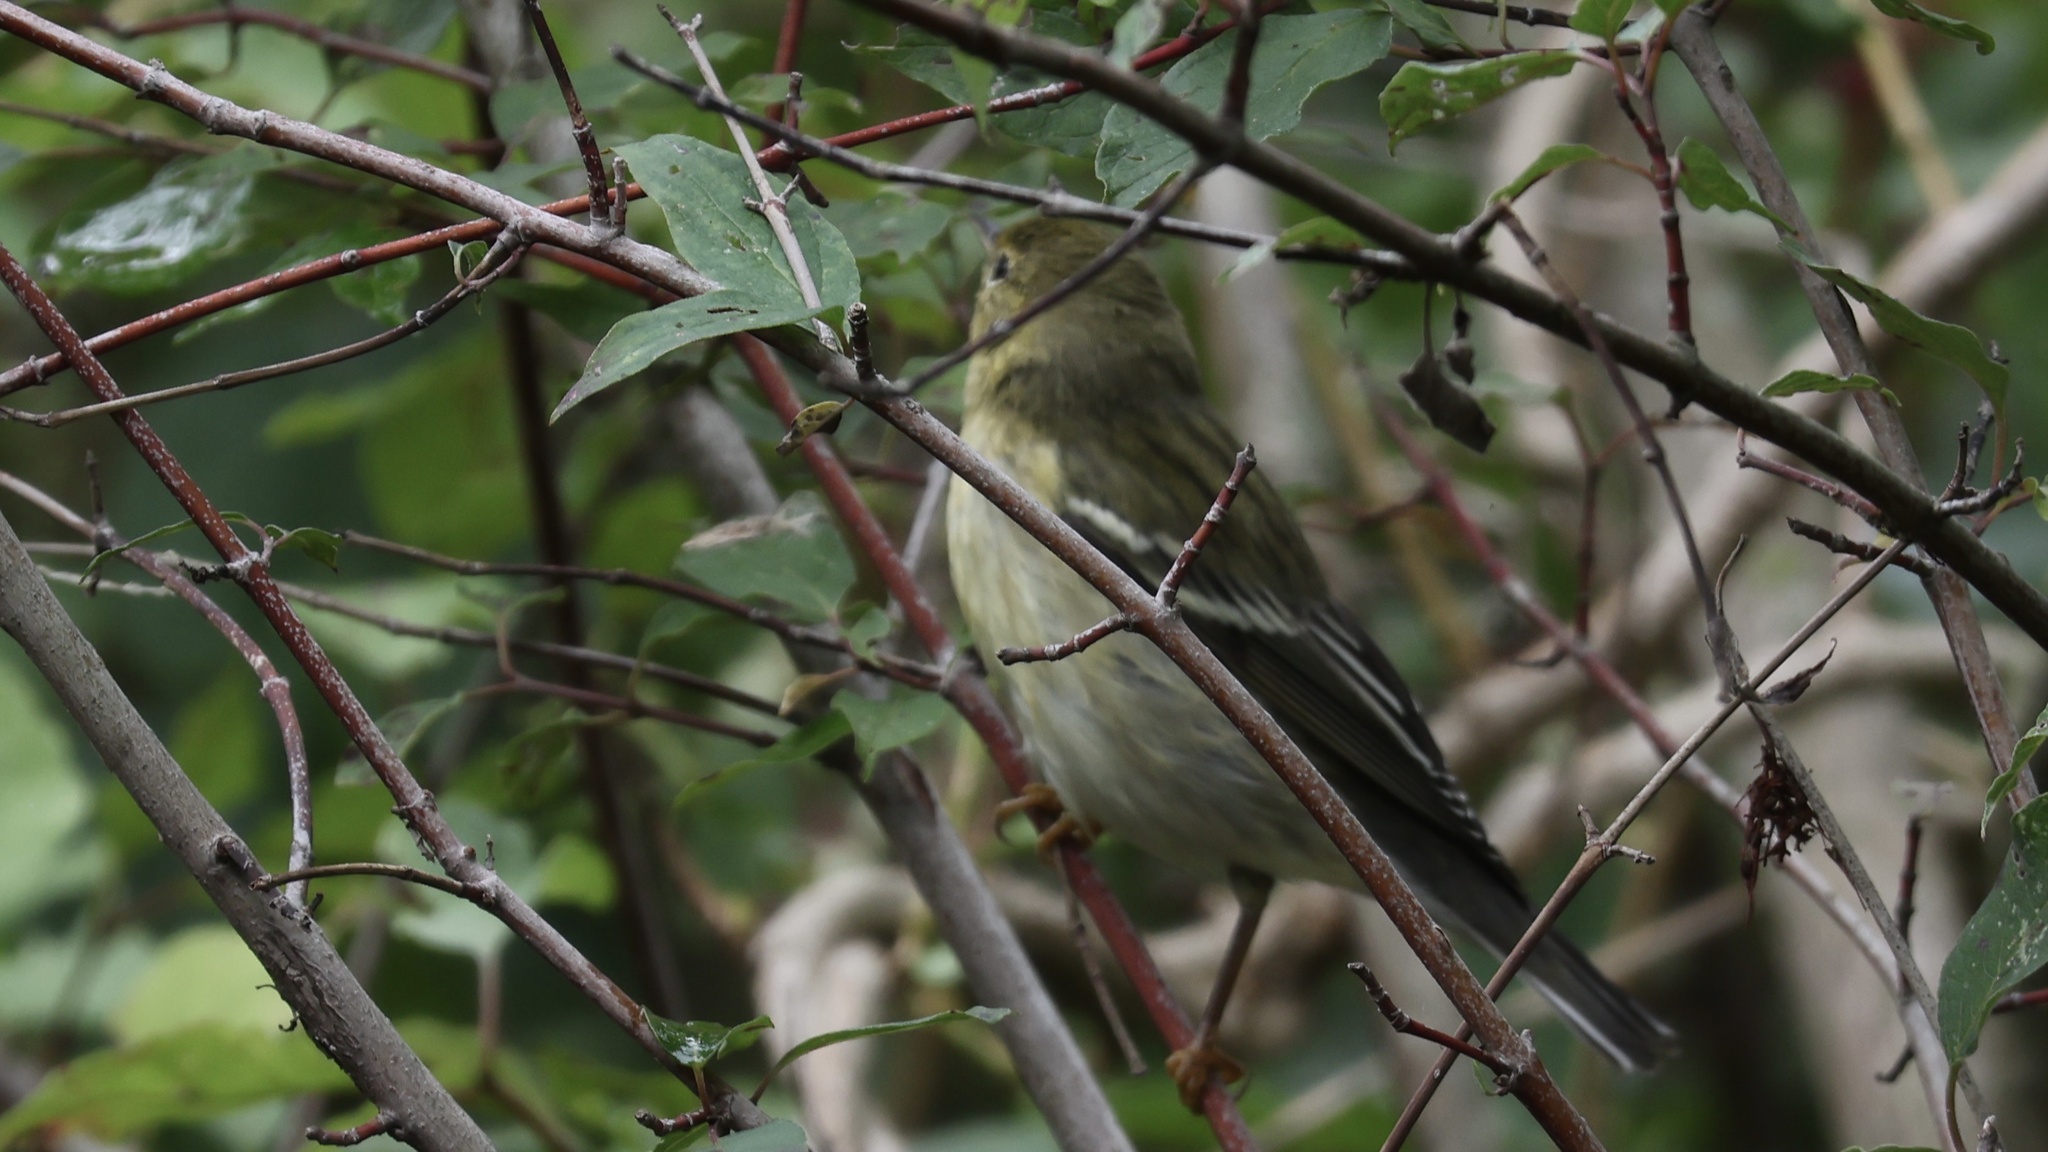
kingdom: Animalia
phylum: Chordata
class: Aves
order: Passeriformes
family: Parulidae
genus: Setophaga
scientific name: Setophaga striata
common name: Blackpoll warbler
